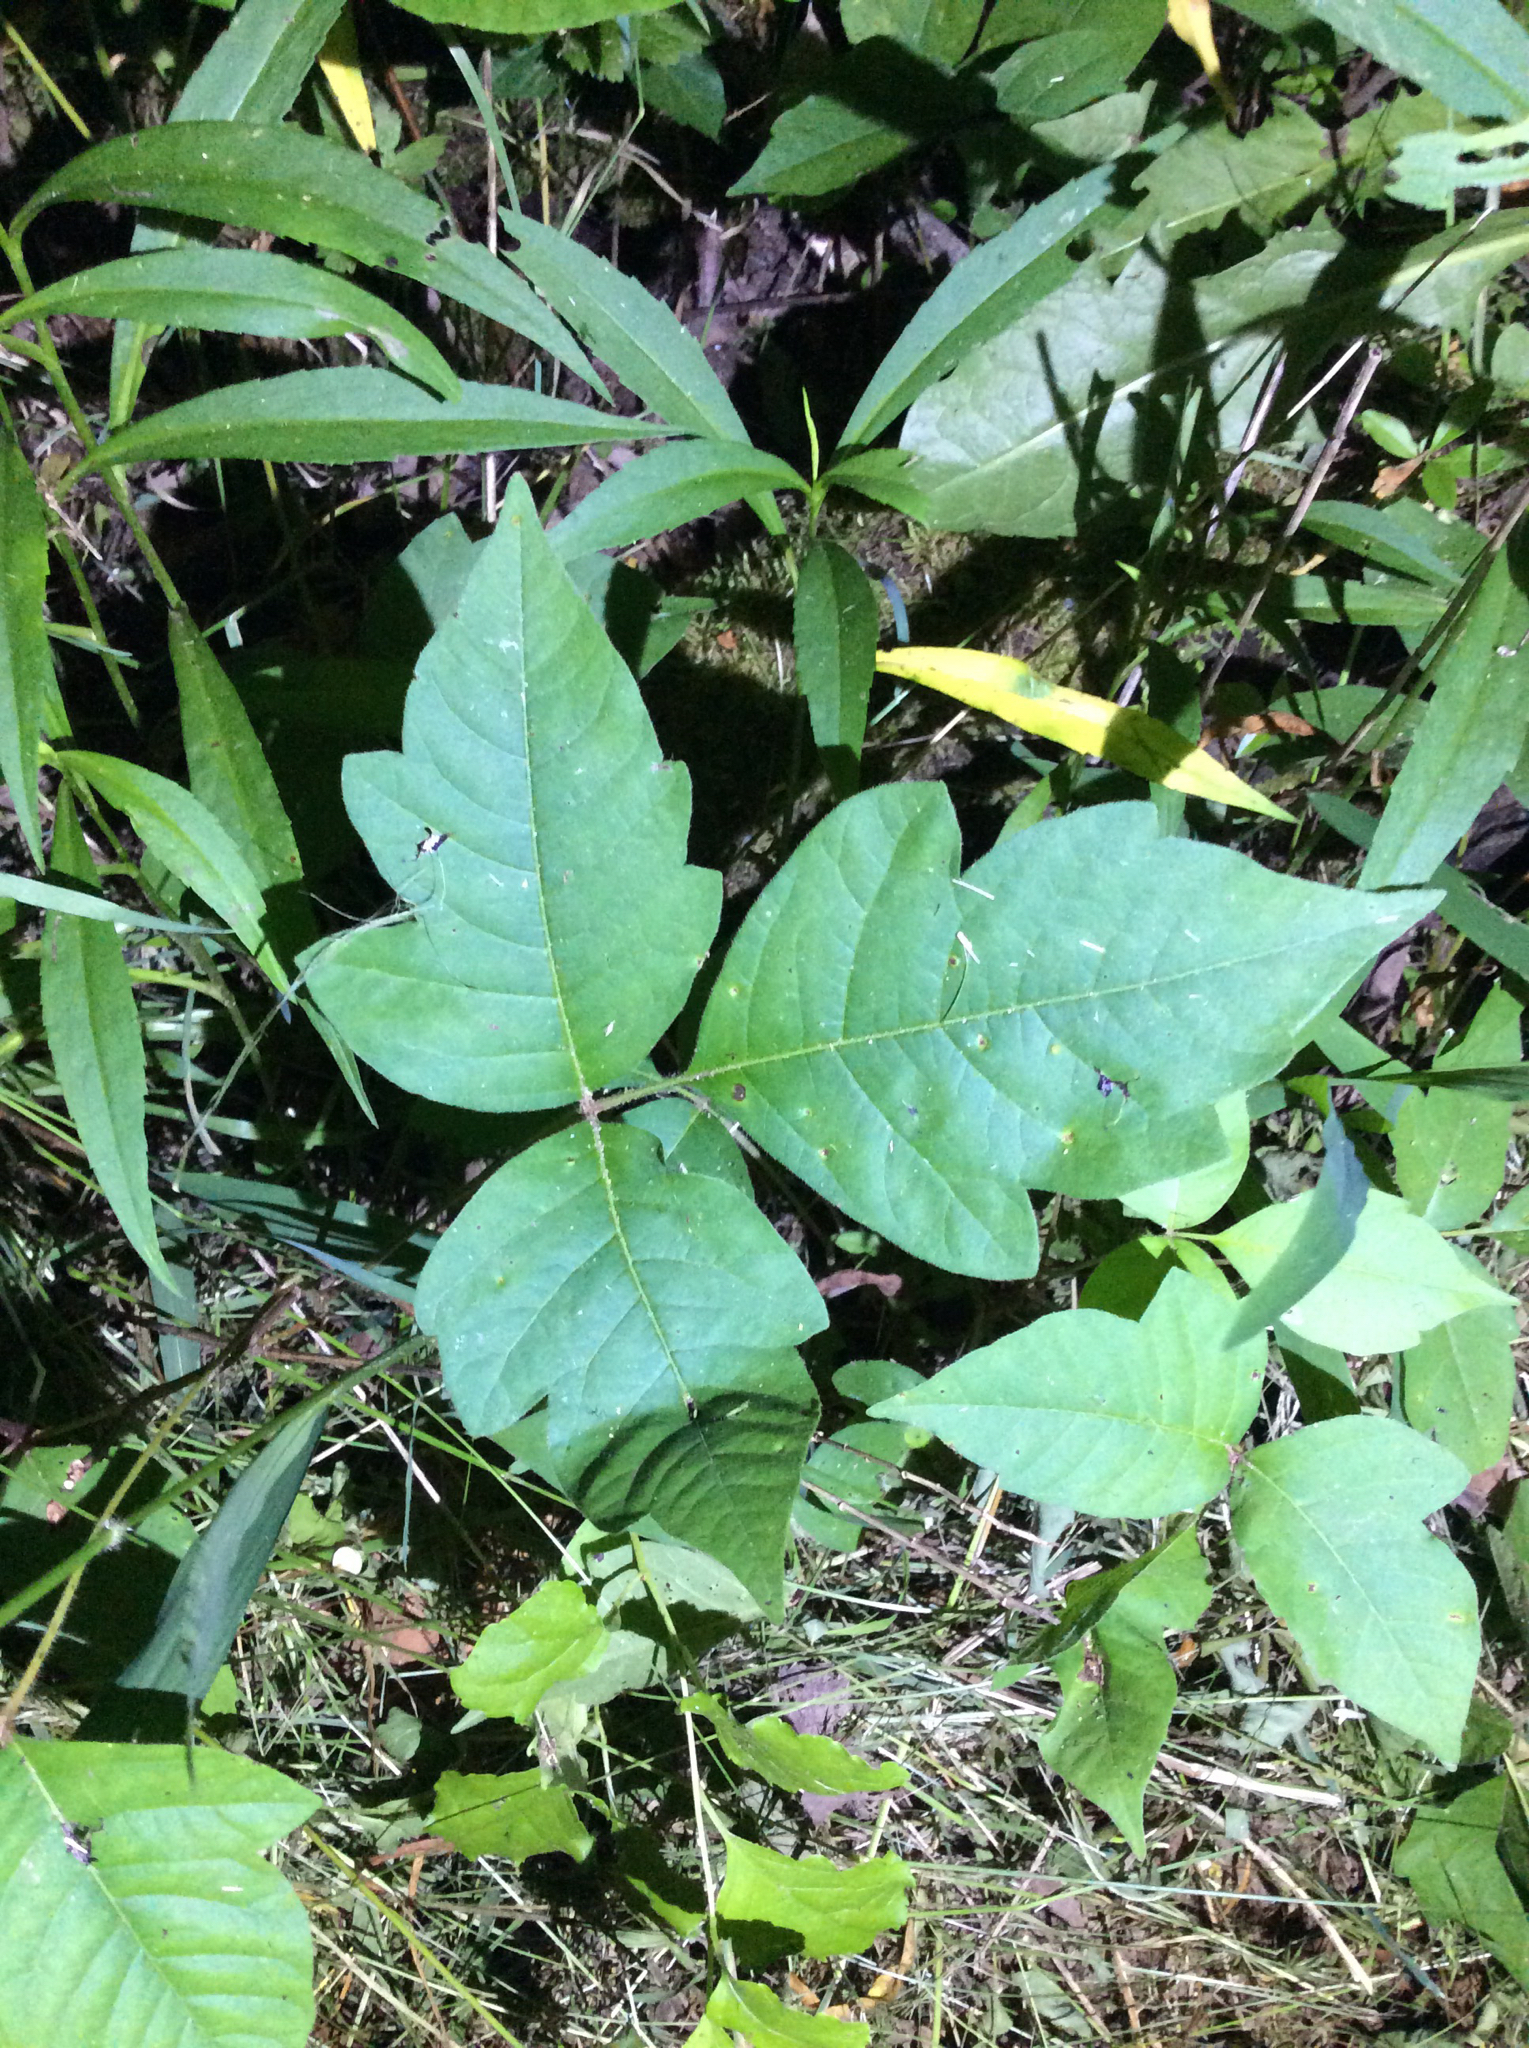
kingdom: Plantae
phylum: Tracheophyta
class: Magnoliopsida
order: Sapindales
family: Anacardiaceae
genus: Toxicodendron
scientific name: Toxicodendron radicans
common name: Poison ivy
